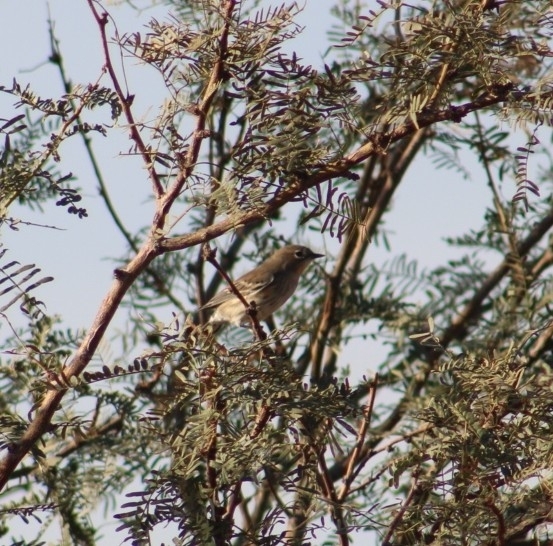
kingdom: Animalia
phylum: Chordata
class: Aves
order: Passeriformes
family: Parulidae
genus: Setophaga
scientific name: Setophaga coronata
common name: Myrtle warbler
